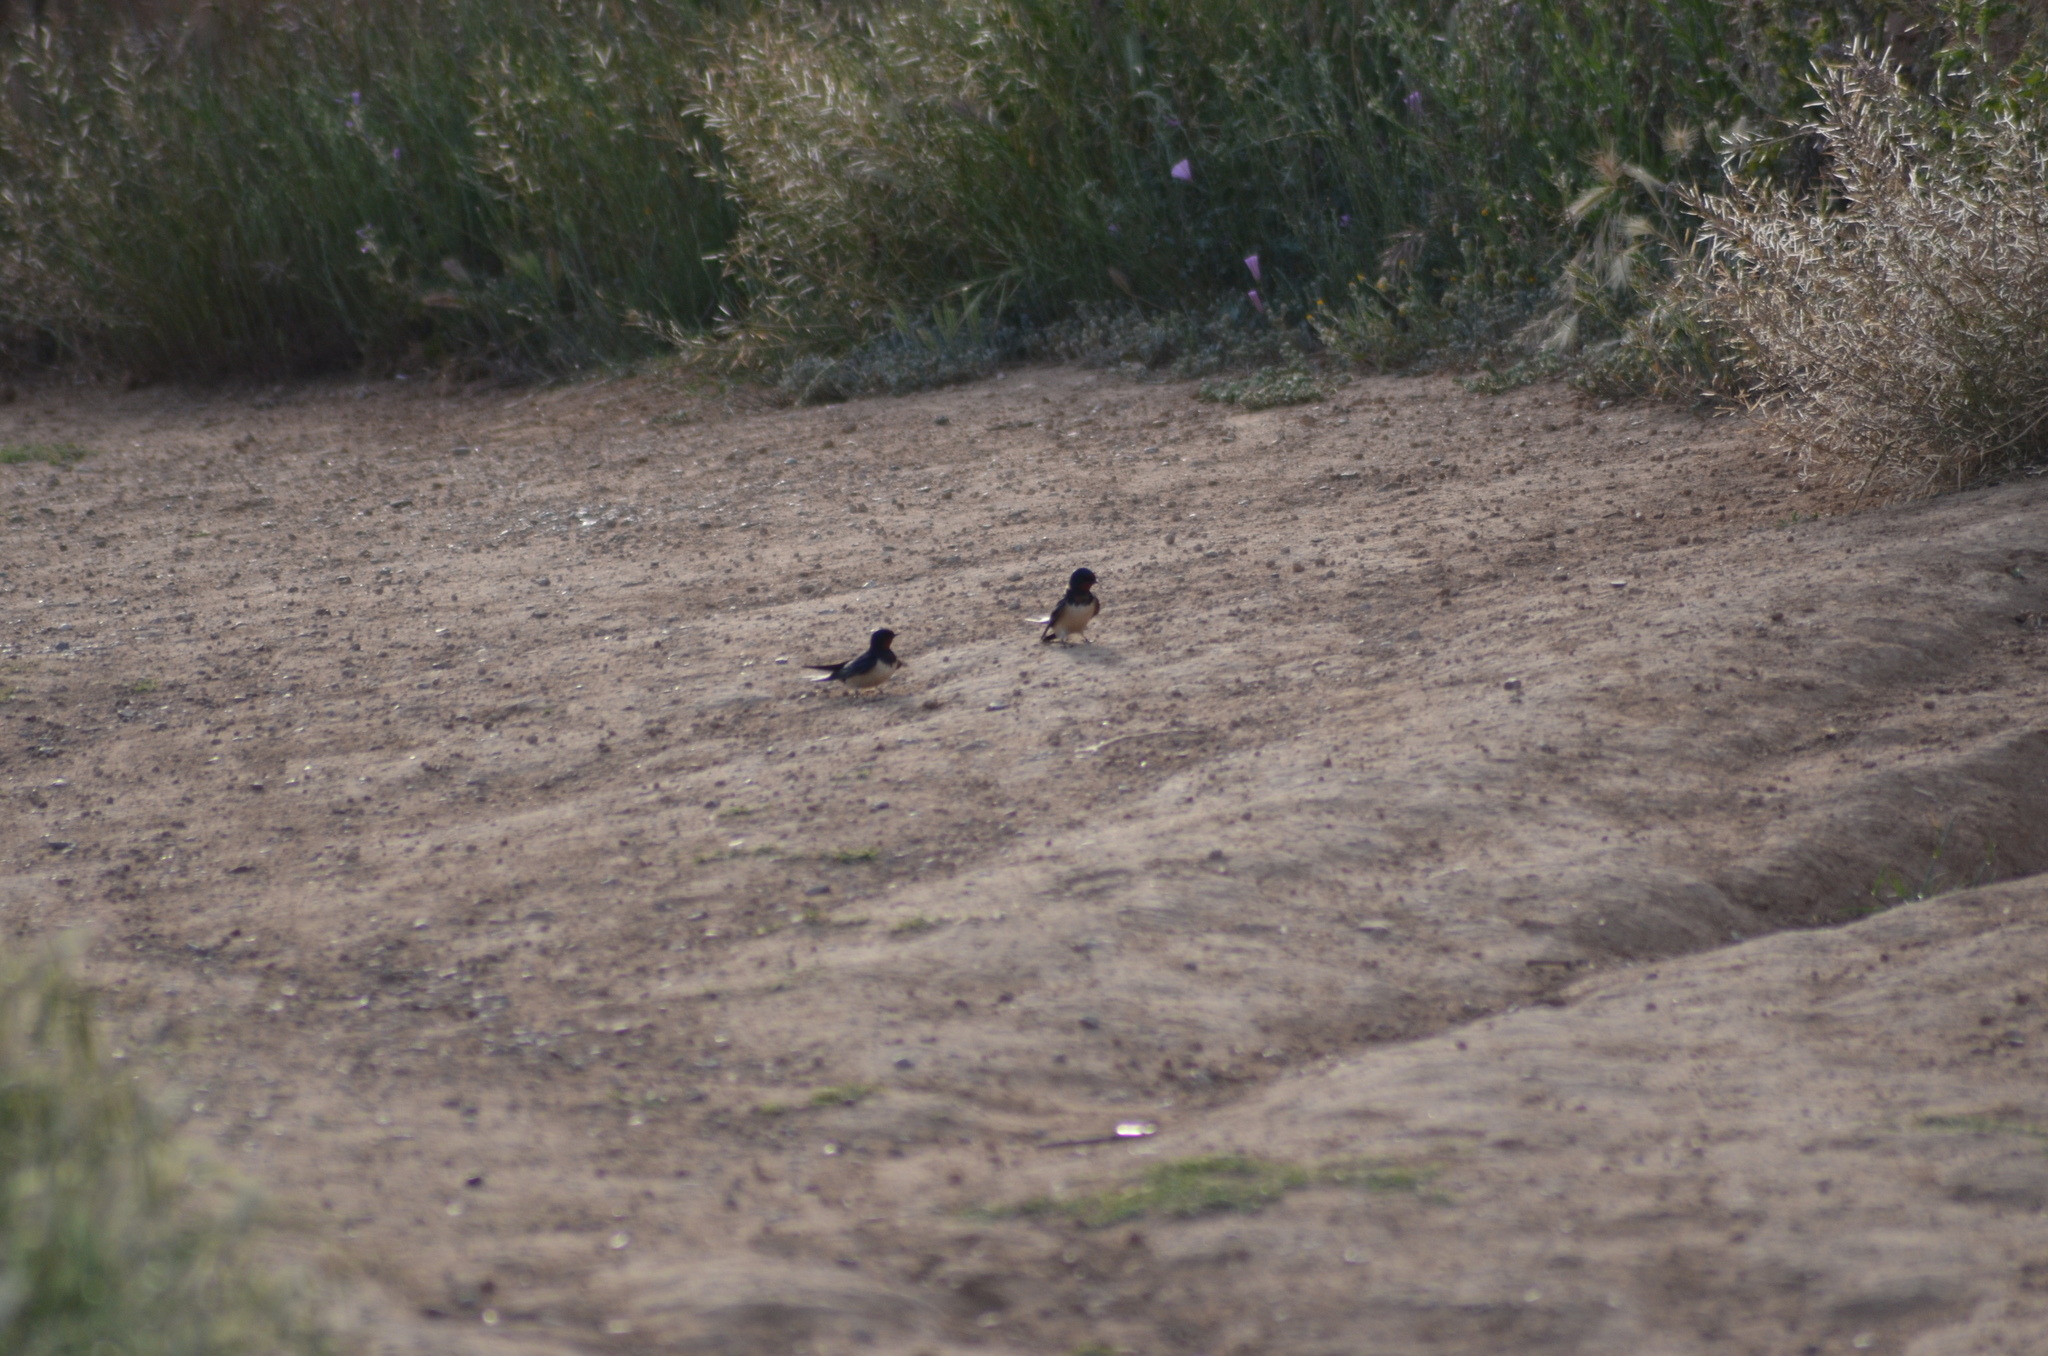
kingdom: Animalia
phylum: Chordata
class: Aves
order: Passeriformes
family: Hirundinidae
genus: Hirundo
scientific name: Hirundo rustica
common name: Barn swallow
